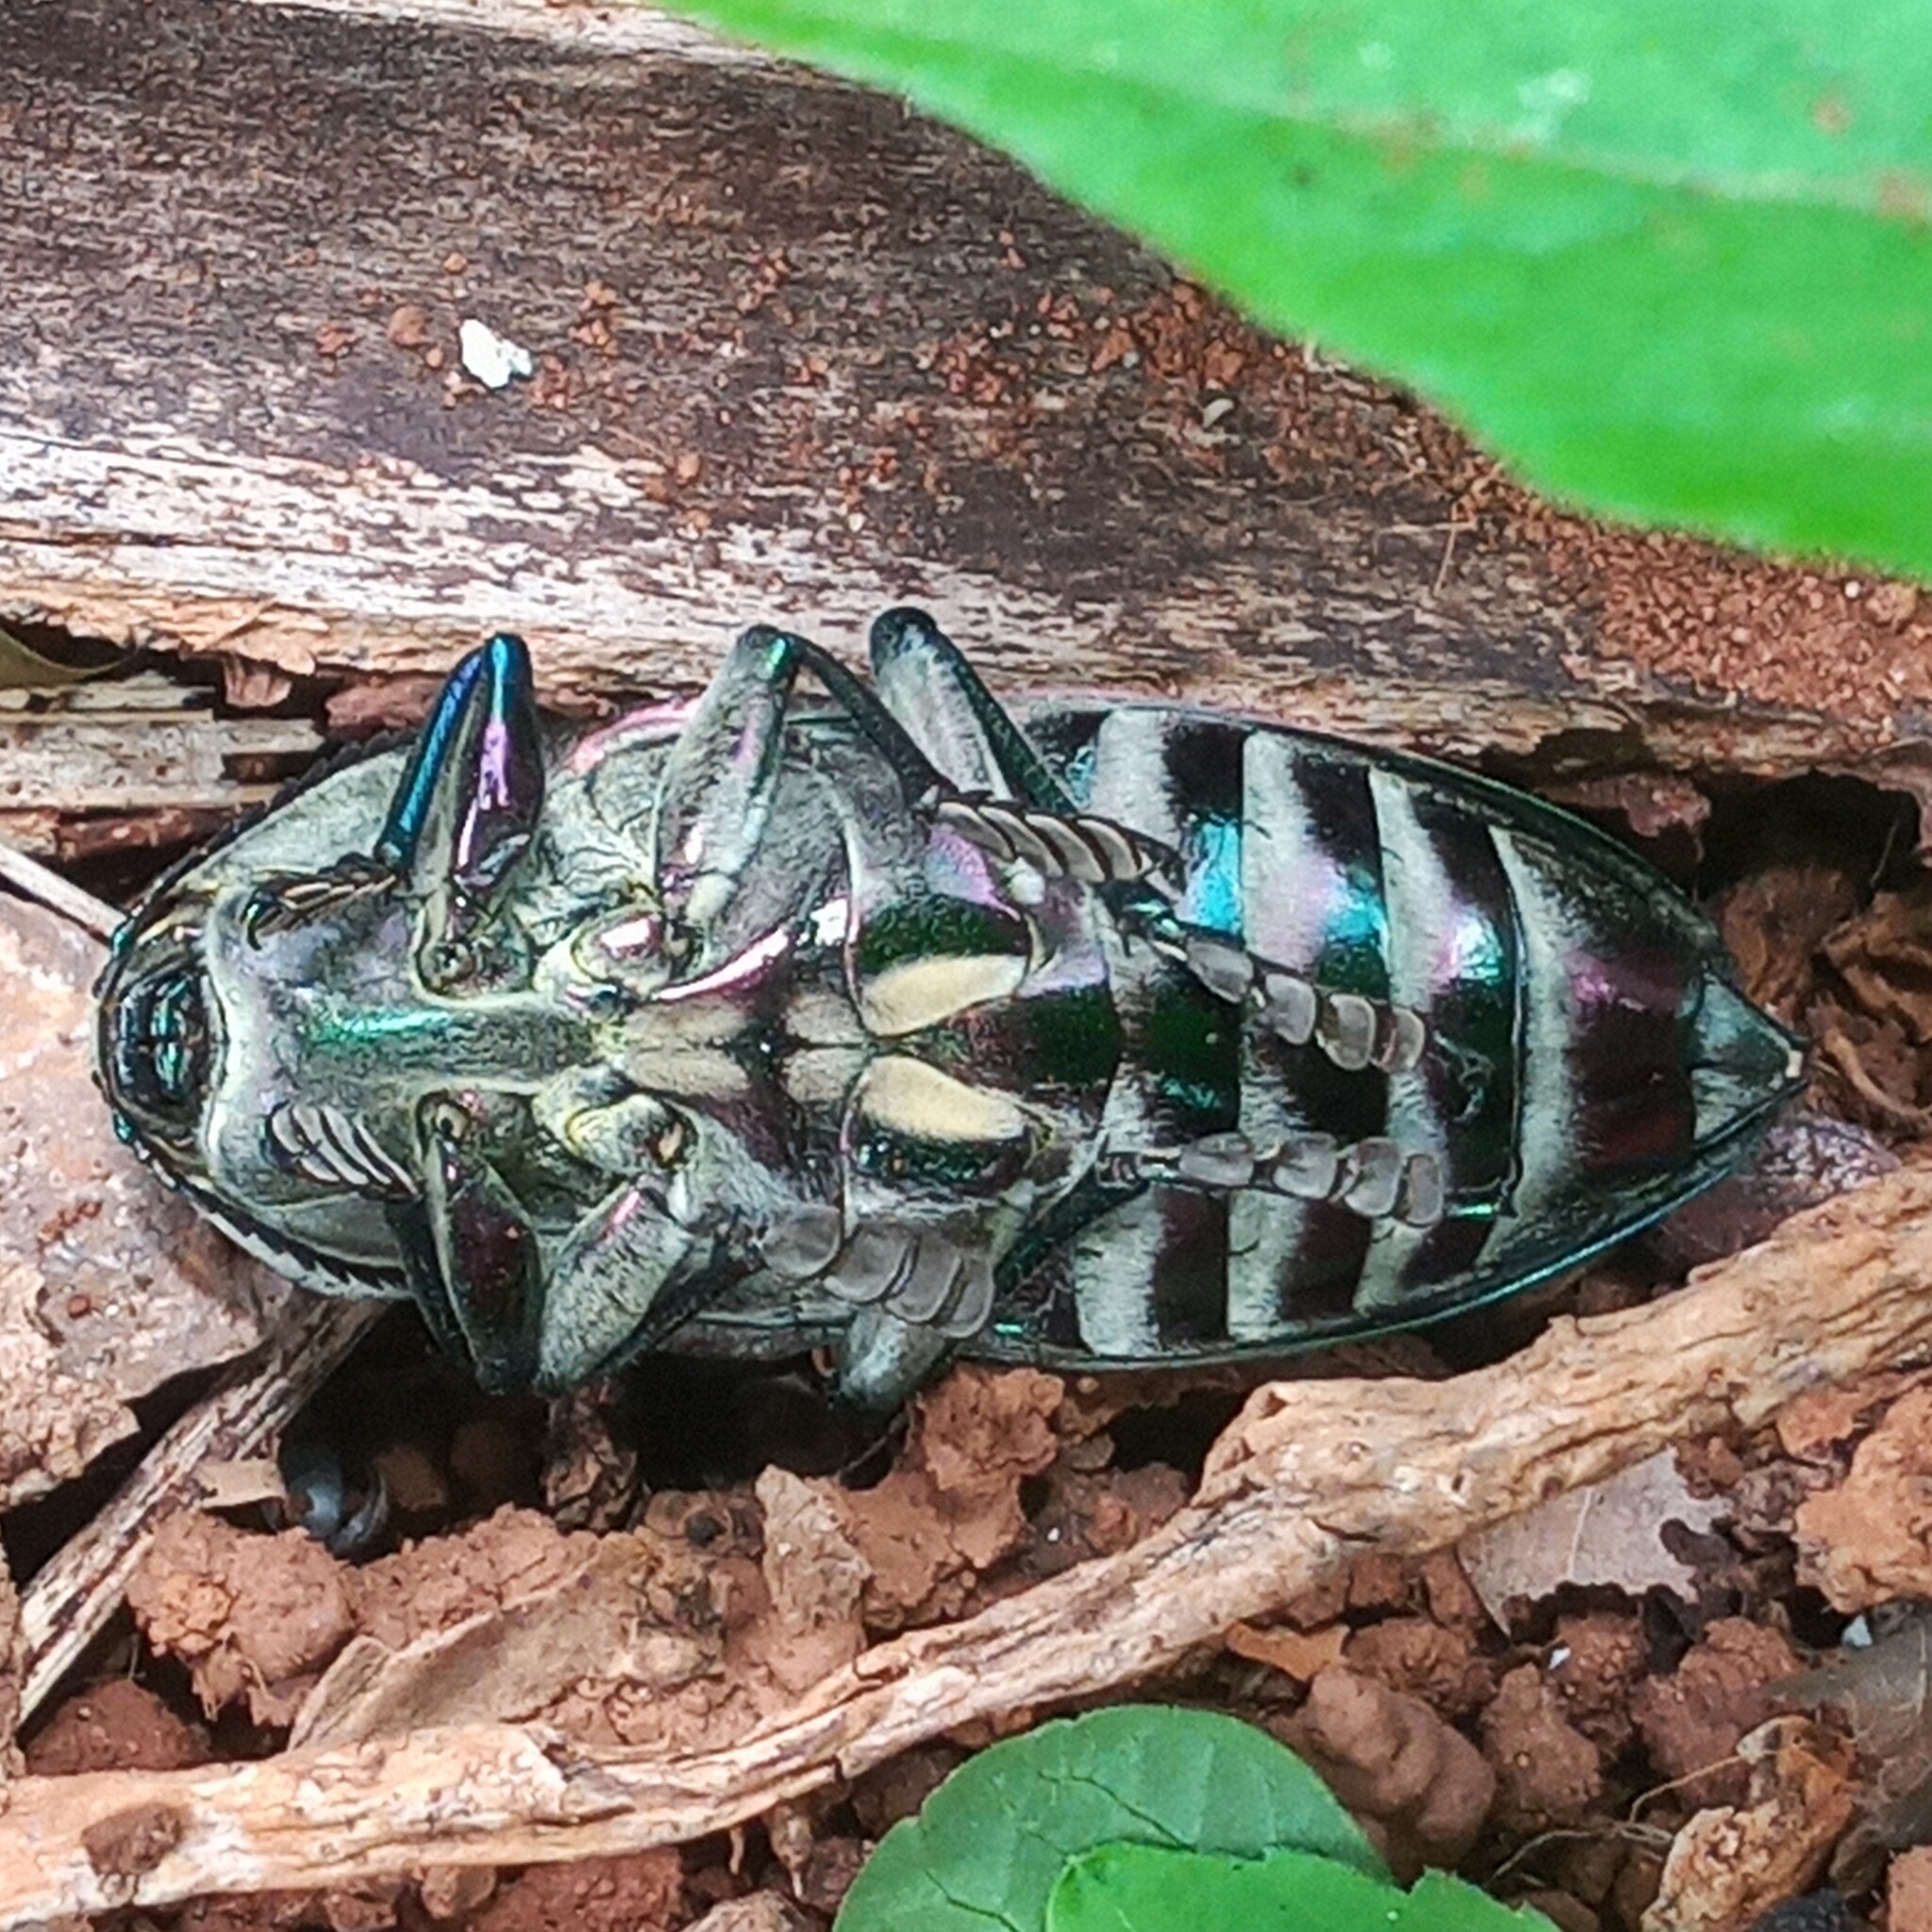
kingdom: Animalia
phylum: Arthropoda
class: Insecta
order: Coleoptera
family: Buprestidae
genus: Euchroma
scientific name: Euchroma giganteum
